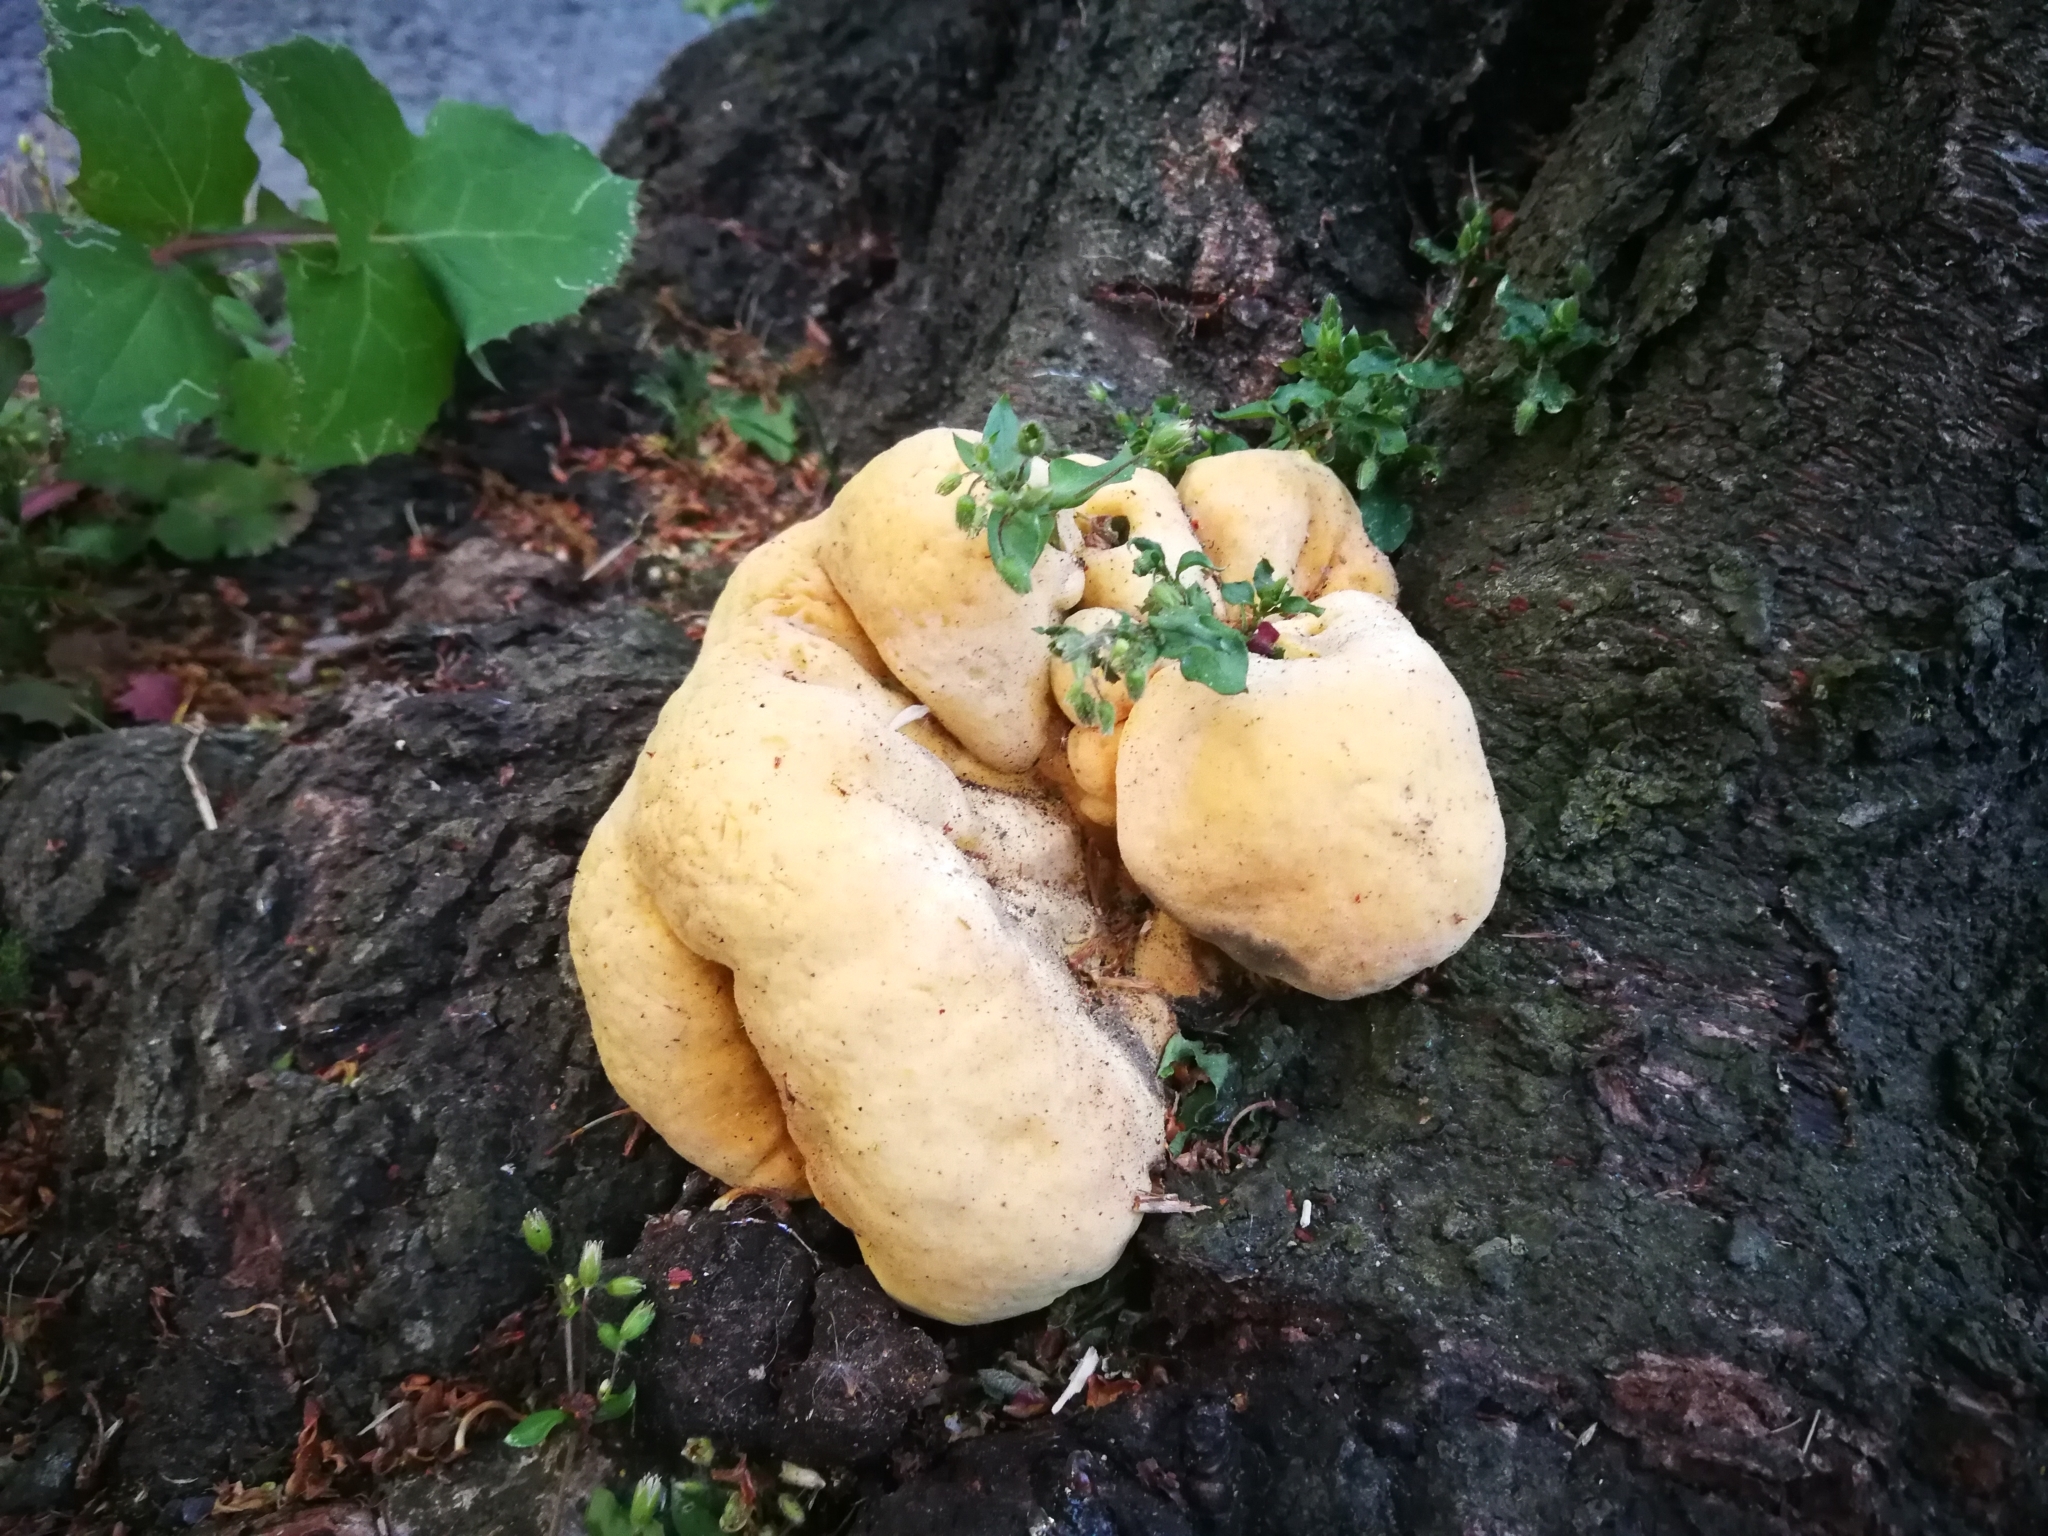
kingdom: Fungi
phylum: Basidiomycota
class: Agaricomycetes
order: Polyporales
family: Laetiporaceae
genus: Laetiporus
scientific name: Laetiporus sulphureus
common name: Chicken of the woods
